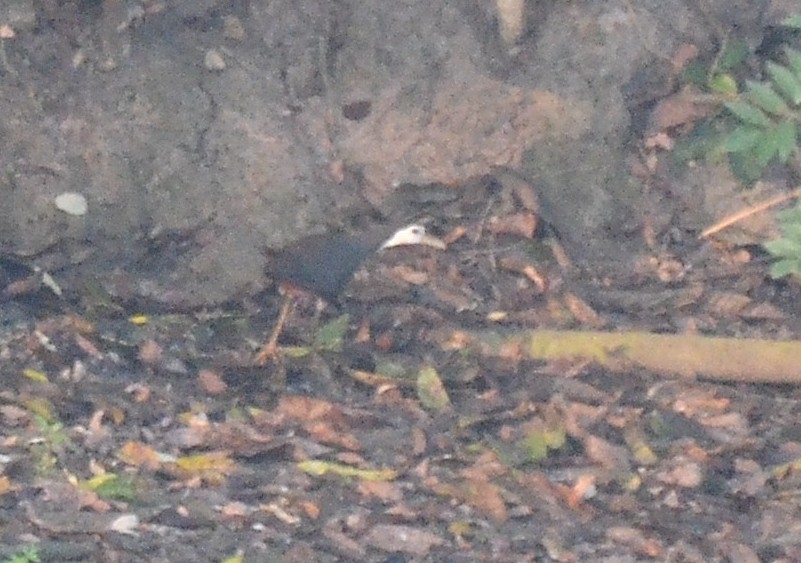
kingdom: Animalia
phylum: Chordata
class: Aves
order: Gruiformes
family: Rallidae
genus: Amaurornis
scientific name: Amaurornis phoenicurus
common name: White-breasted waterhen
